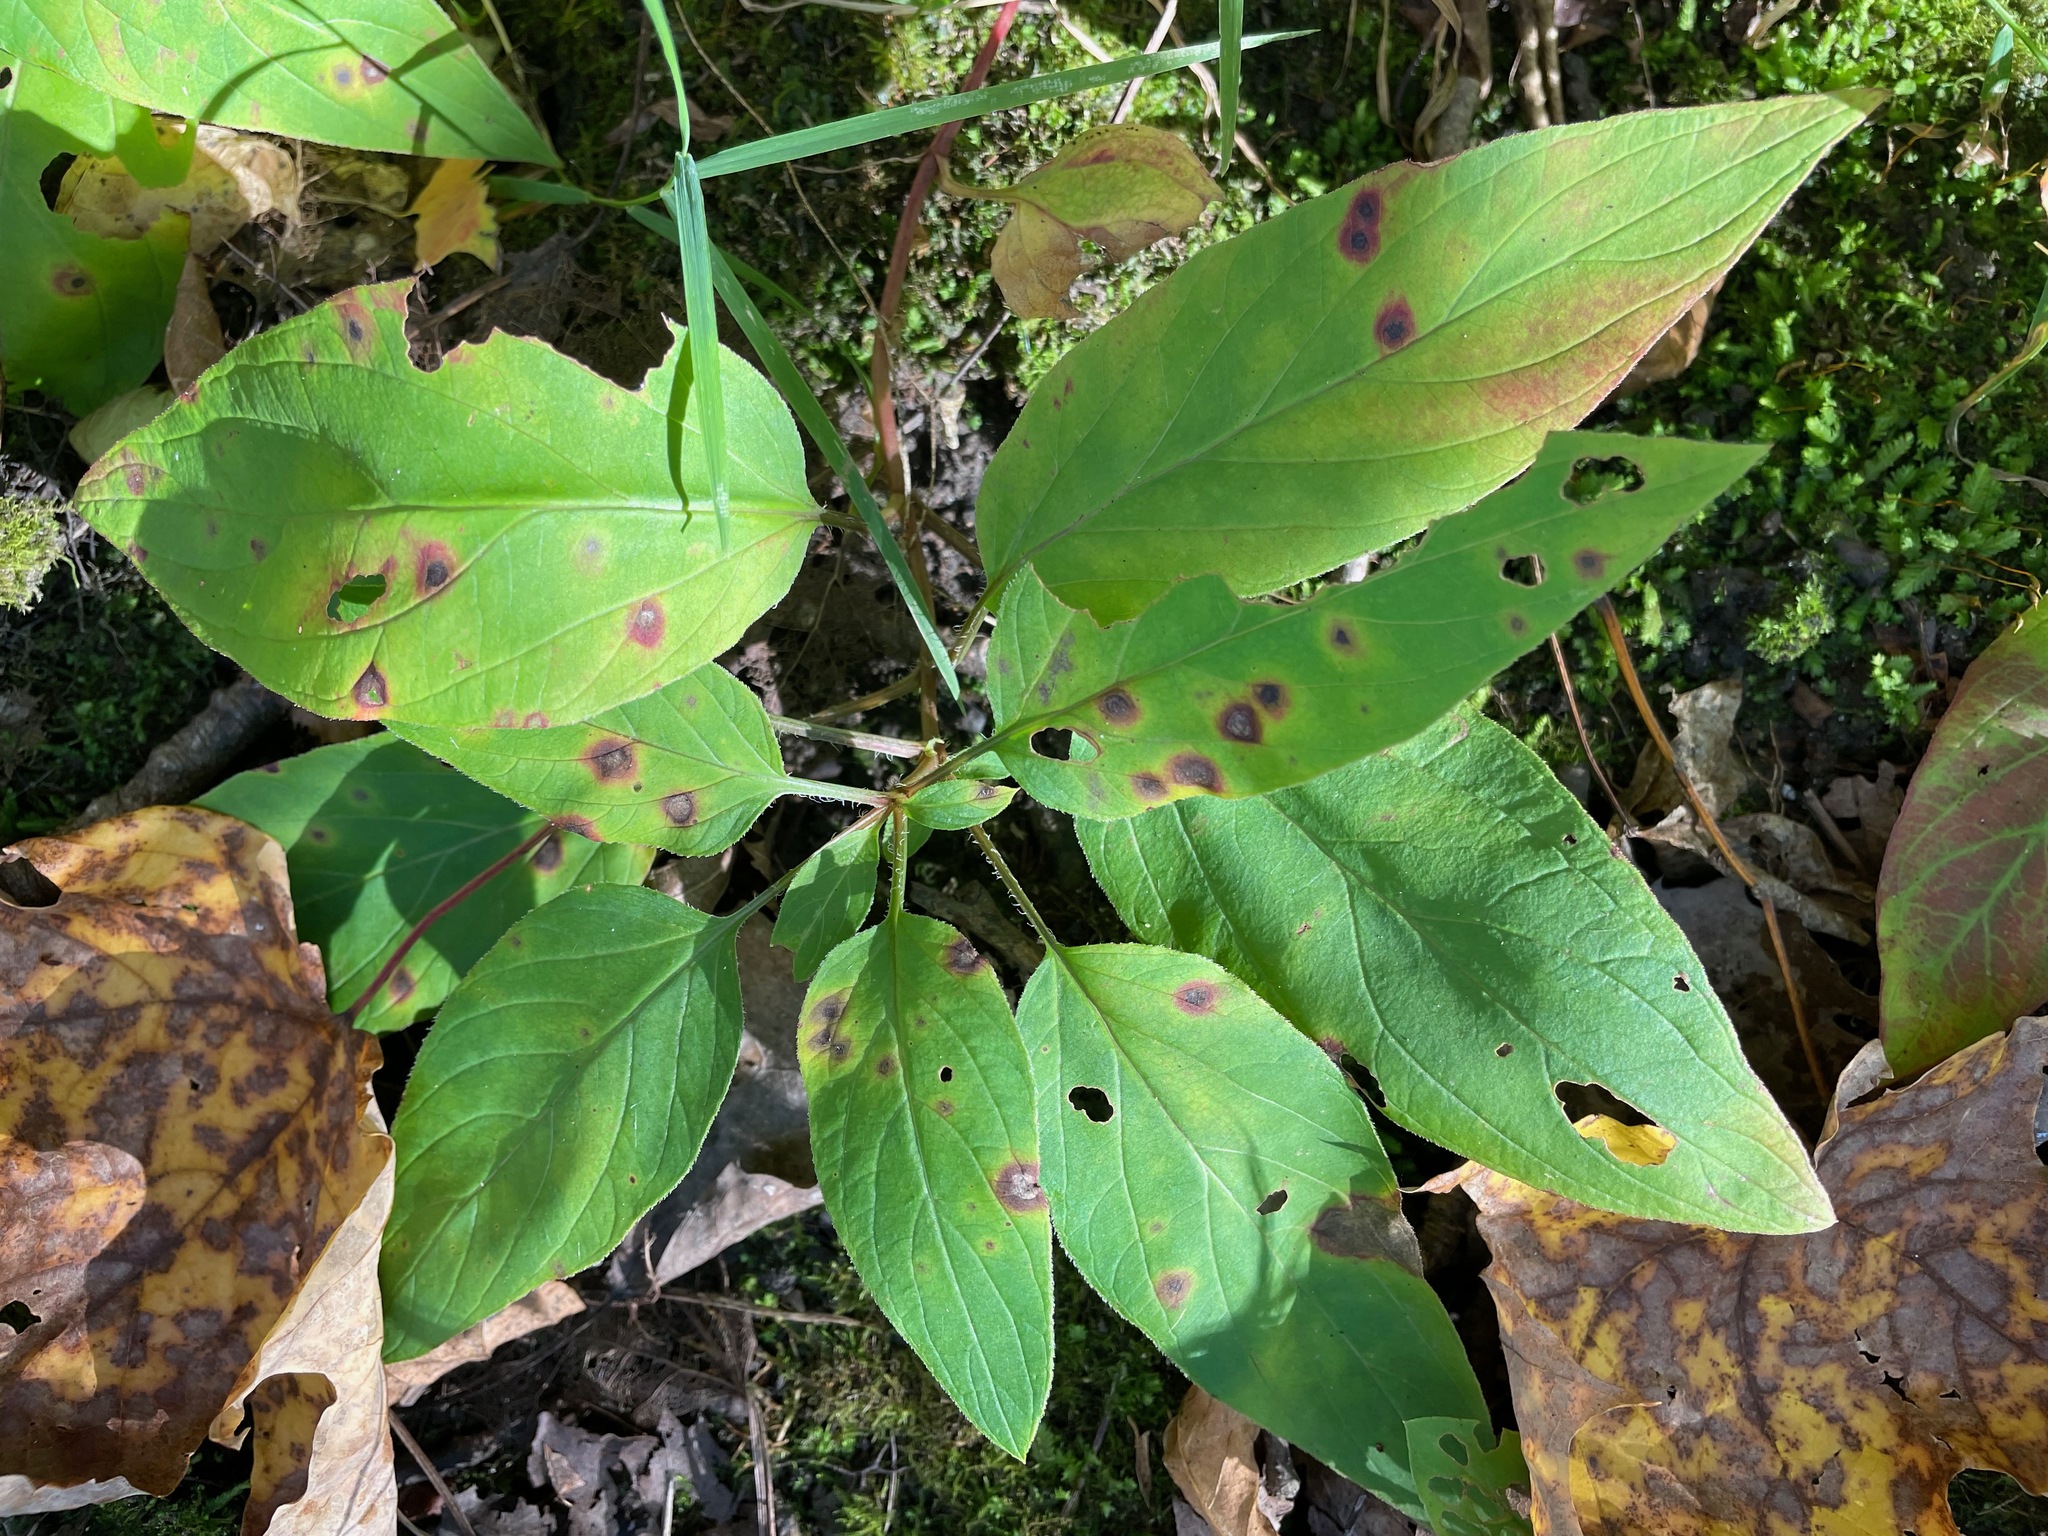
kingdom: Plantae
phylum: Tracheophyta
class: Magnoliopsida
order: Ericales
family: Primulaceae
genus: Lysimachia
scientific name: Lysimachia ciliata
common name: Fringed loosestrife
